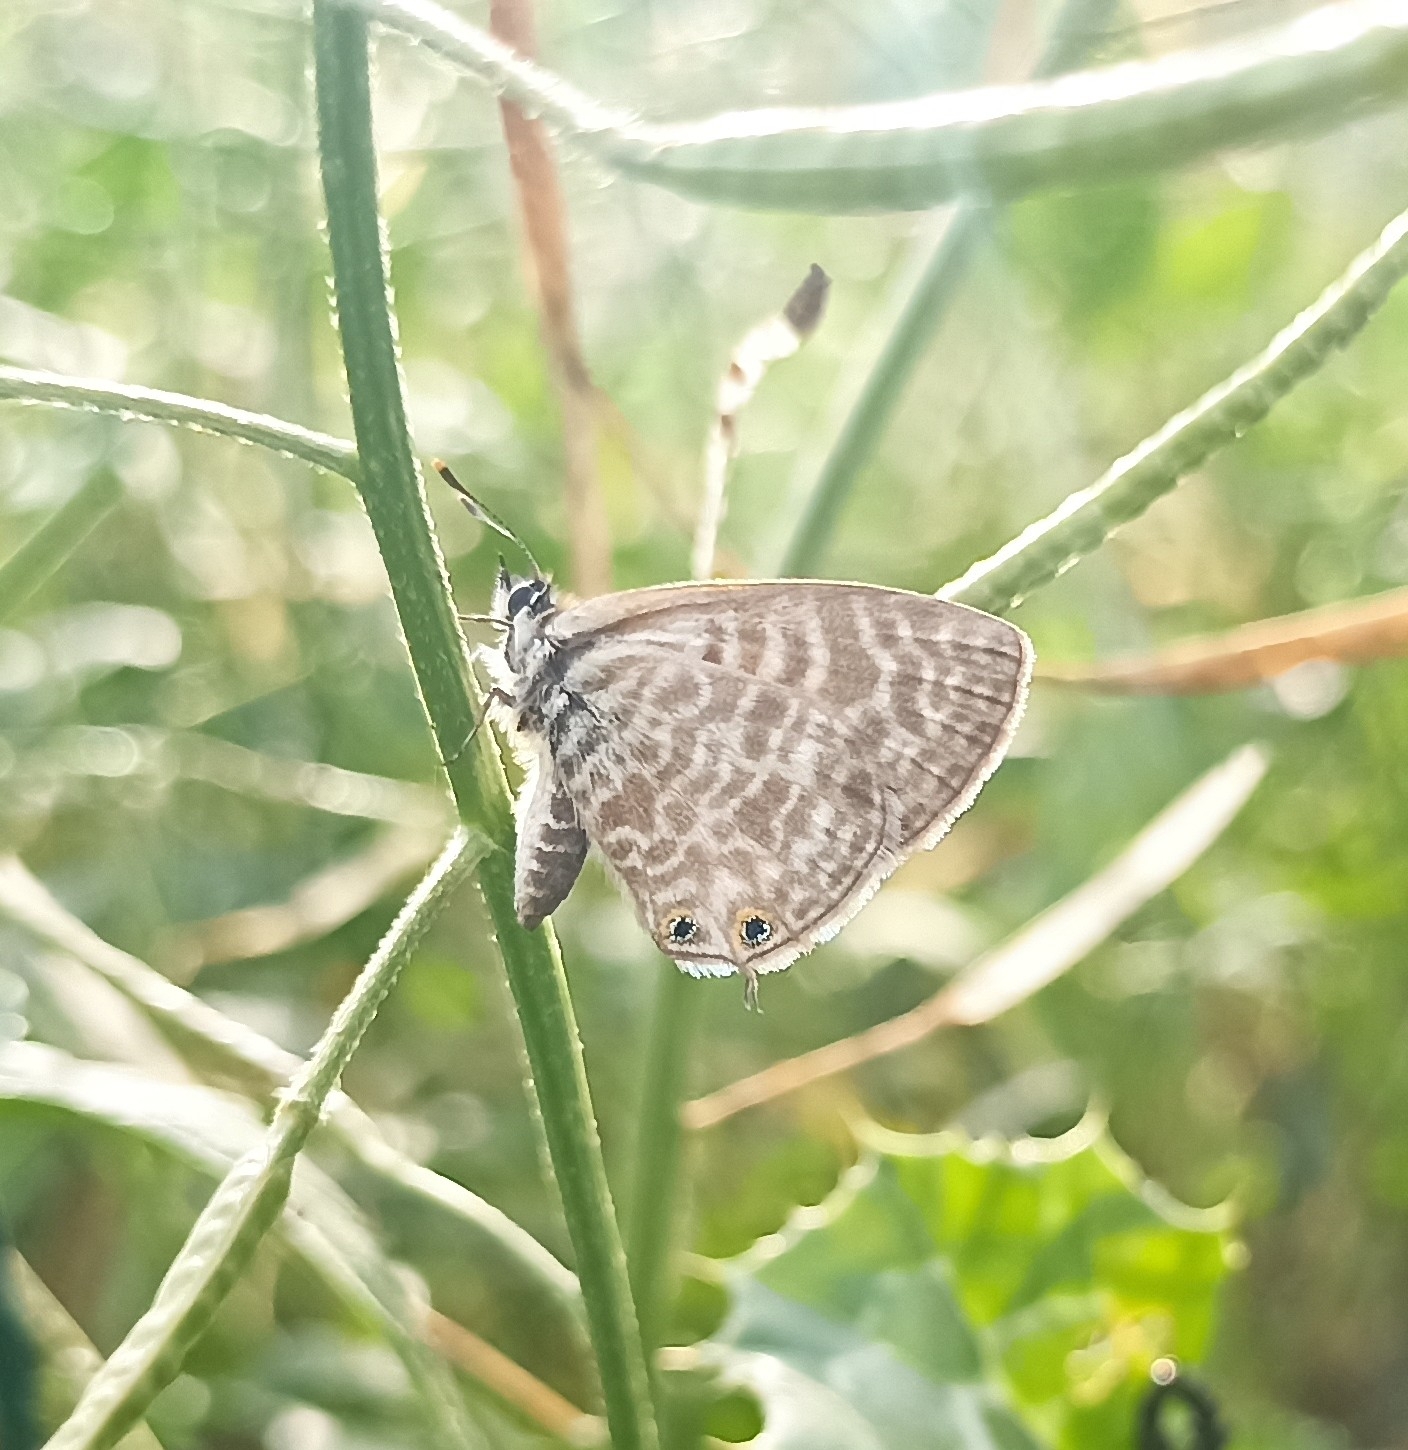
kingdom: Animalia
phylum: Arthropoda
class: Insecta
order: Lepidoptera
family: Lycaenidae
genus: Leptotes
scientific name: Leptotes pirithous
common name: Lang's short-tailed blue
